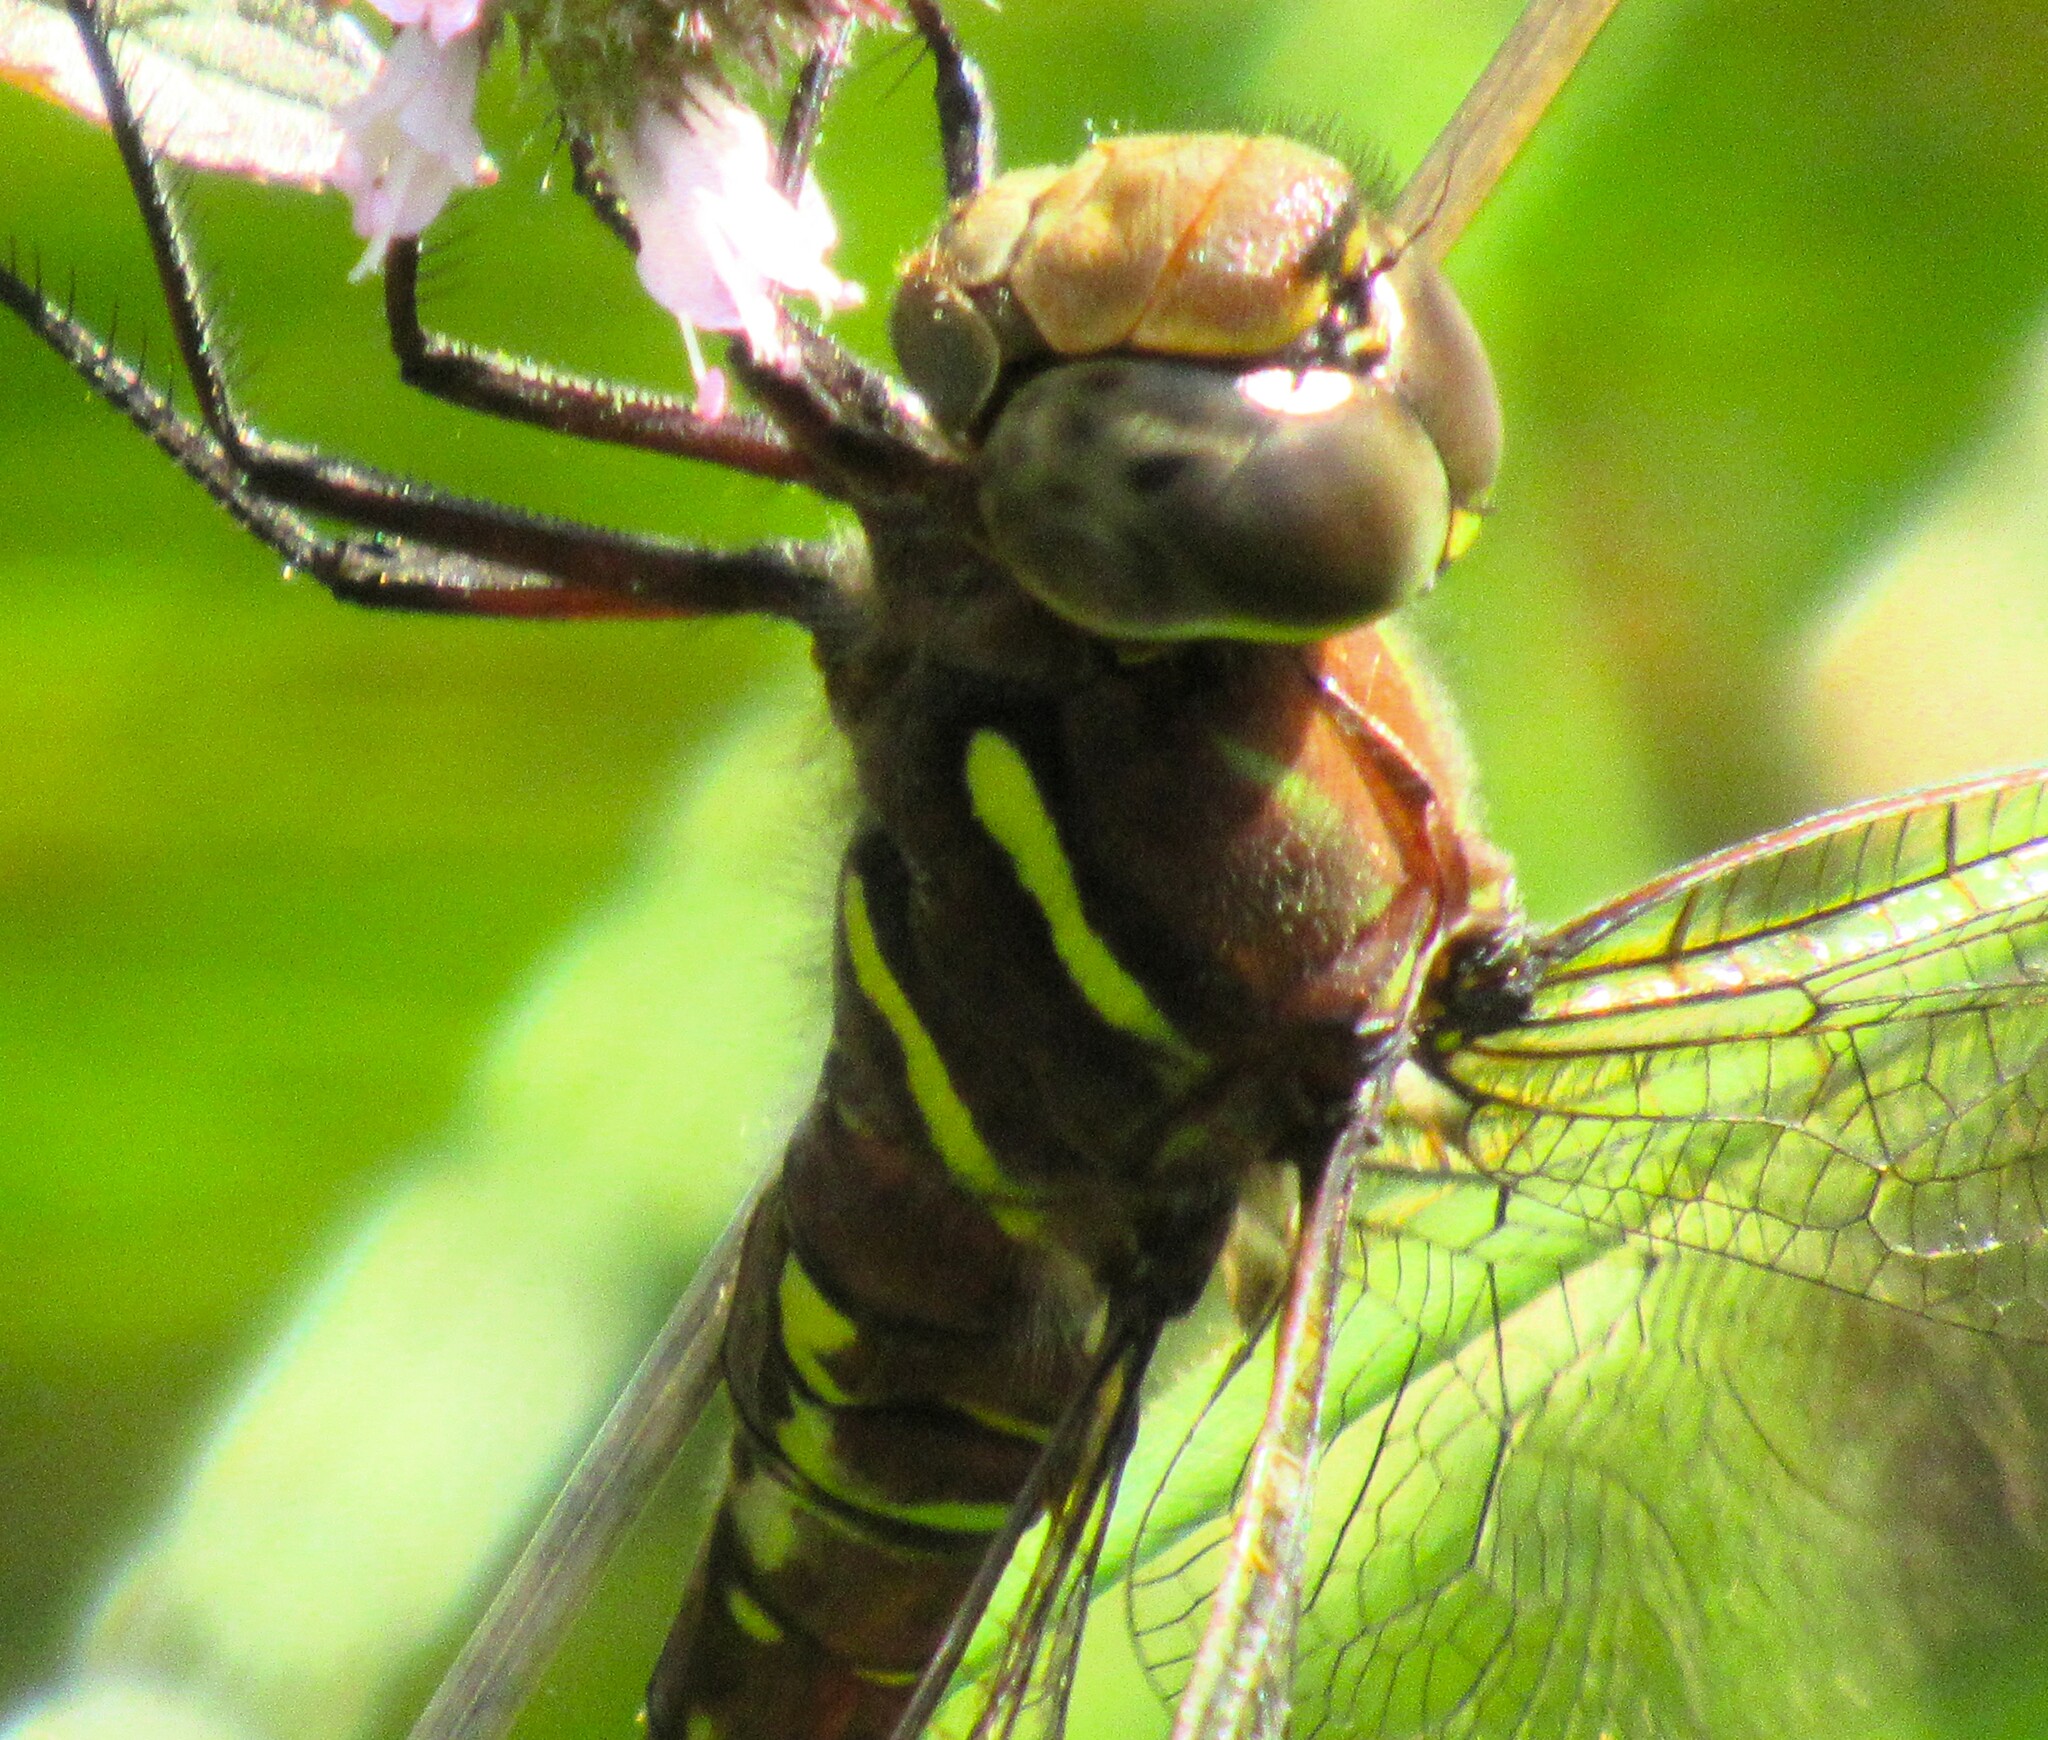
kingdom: Animalia
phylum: Arthropoda
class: Insecta
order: Odonata
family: Aeshnidae
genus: Aeshna
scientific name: Aeshna umbrosa
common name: Shadow darner
